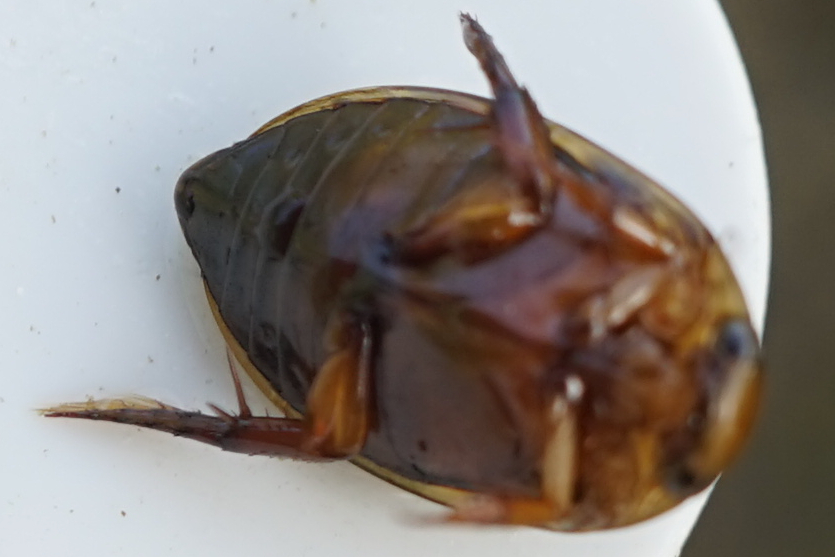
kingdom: Animalia
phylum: Arthropoda
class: Insecta
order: Coleoptera
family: Dytiscidae
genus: Hydaticus
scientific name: Hydaticus grammicus
